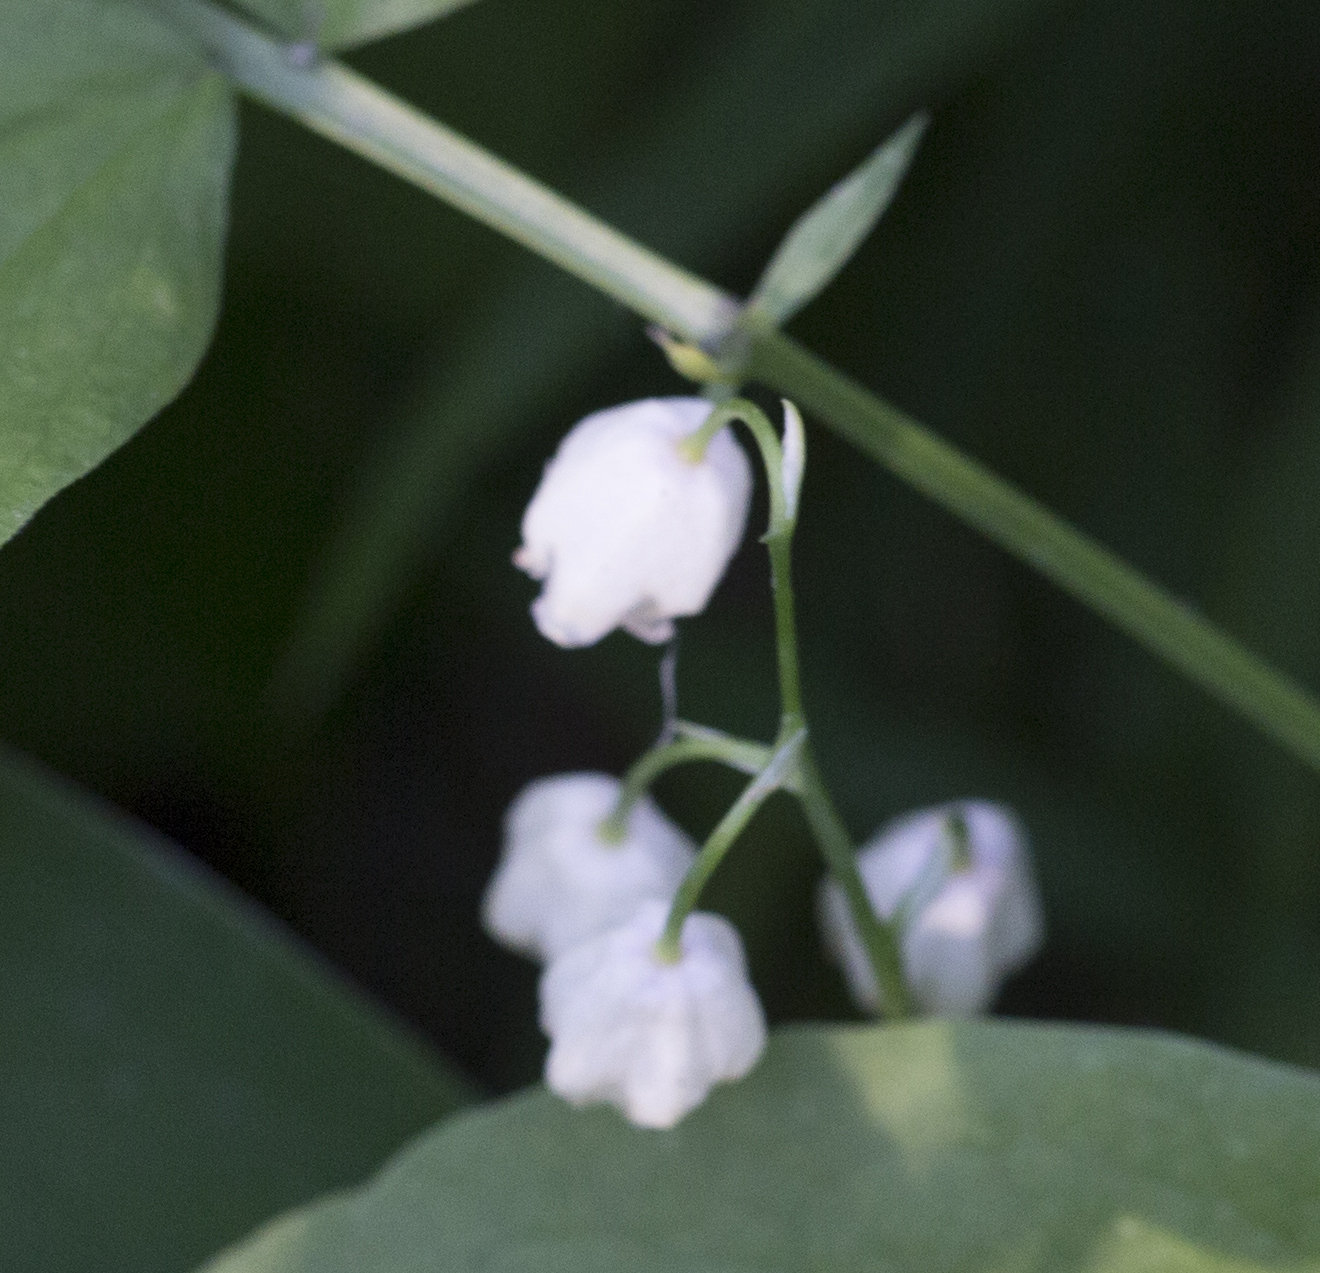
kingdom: Plantae
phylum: Tracheophyta
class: Liliopsida
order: Asparagales
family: Asparagaceae
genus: Convallaria
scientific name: Convallaria majalis
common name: Lily-of-the-valley
